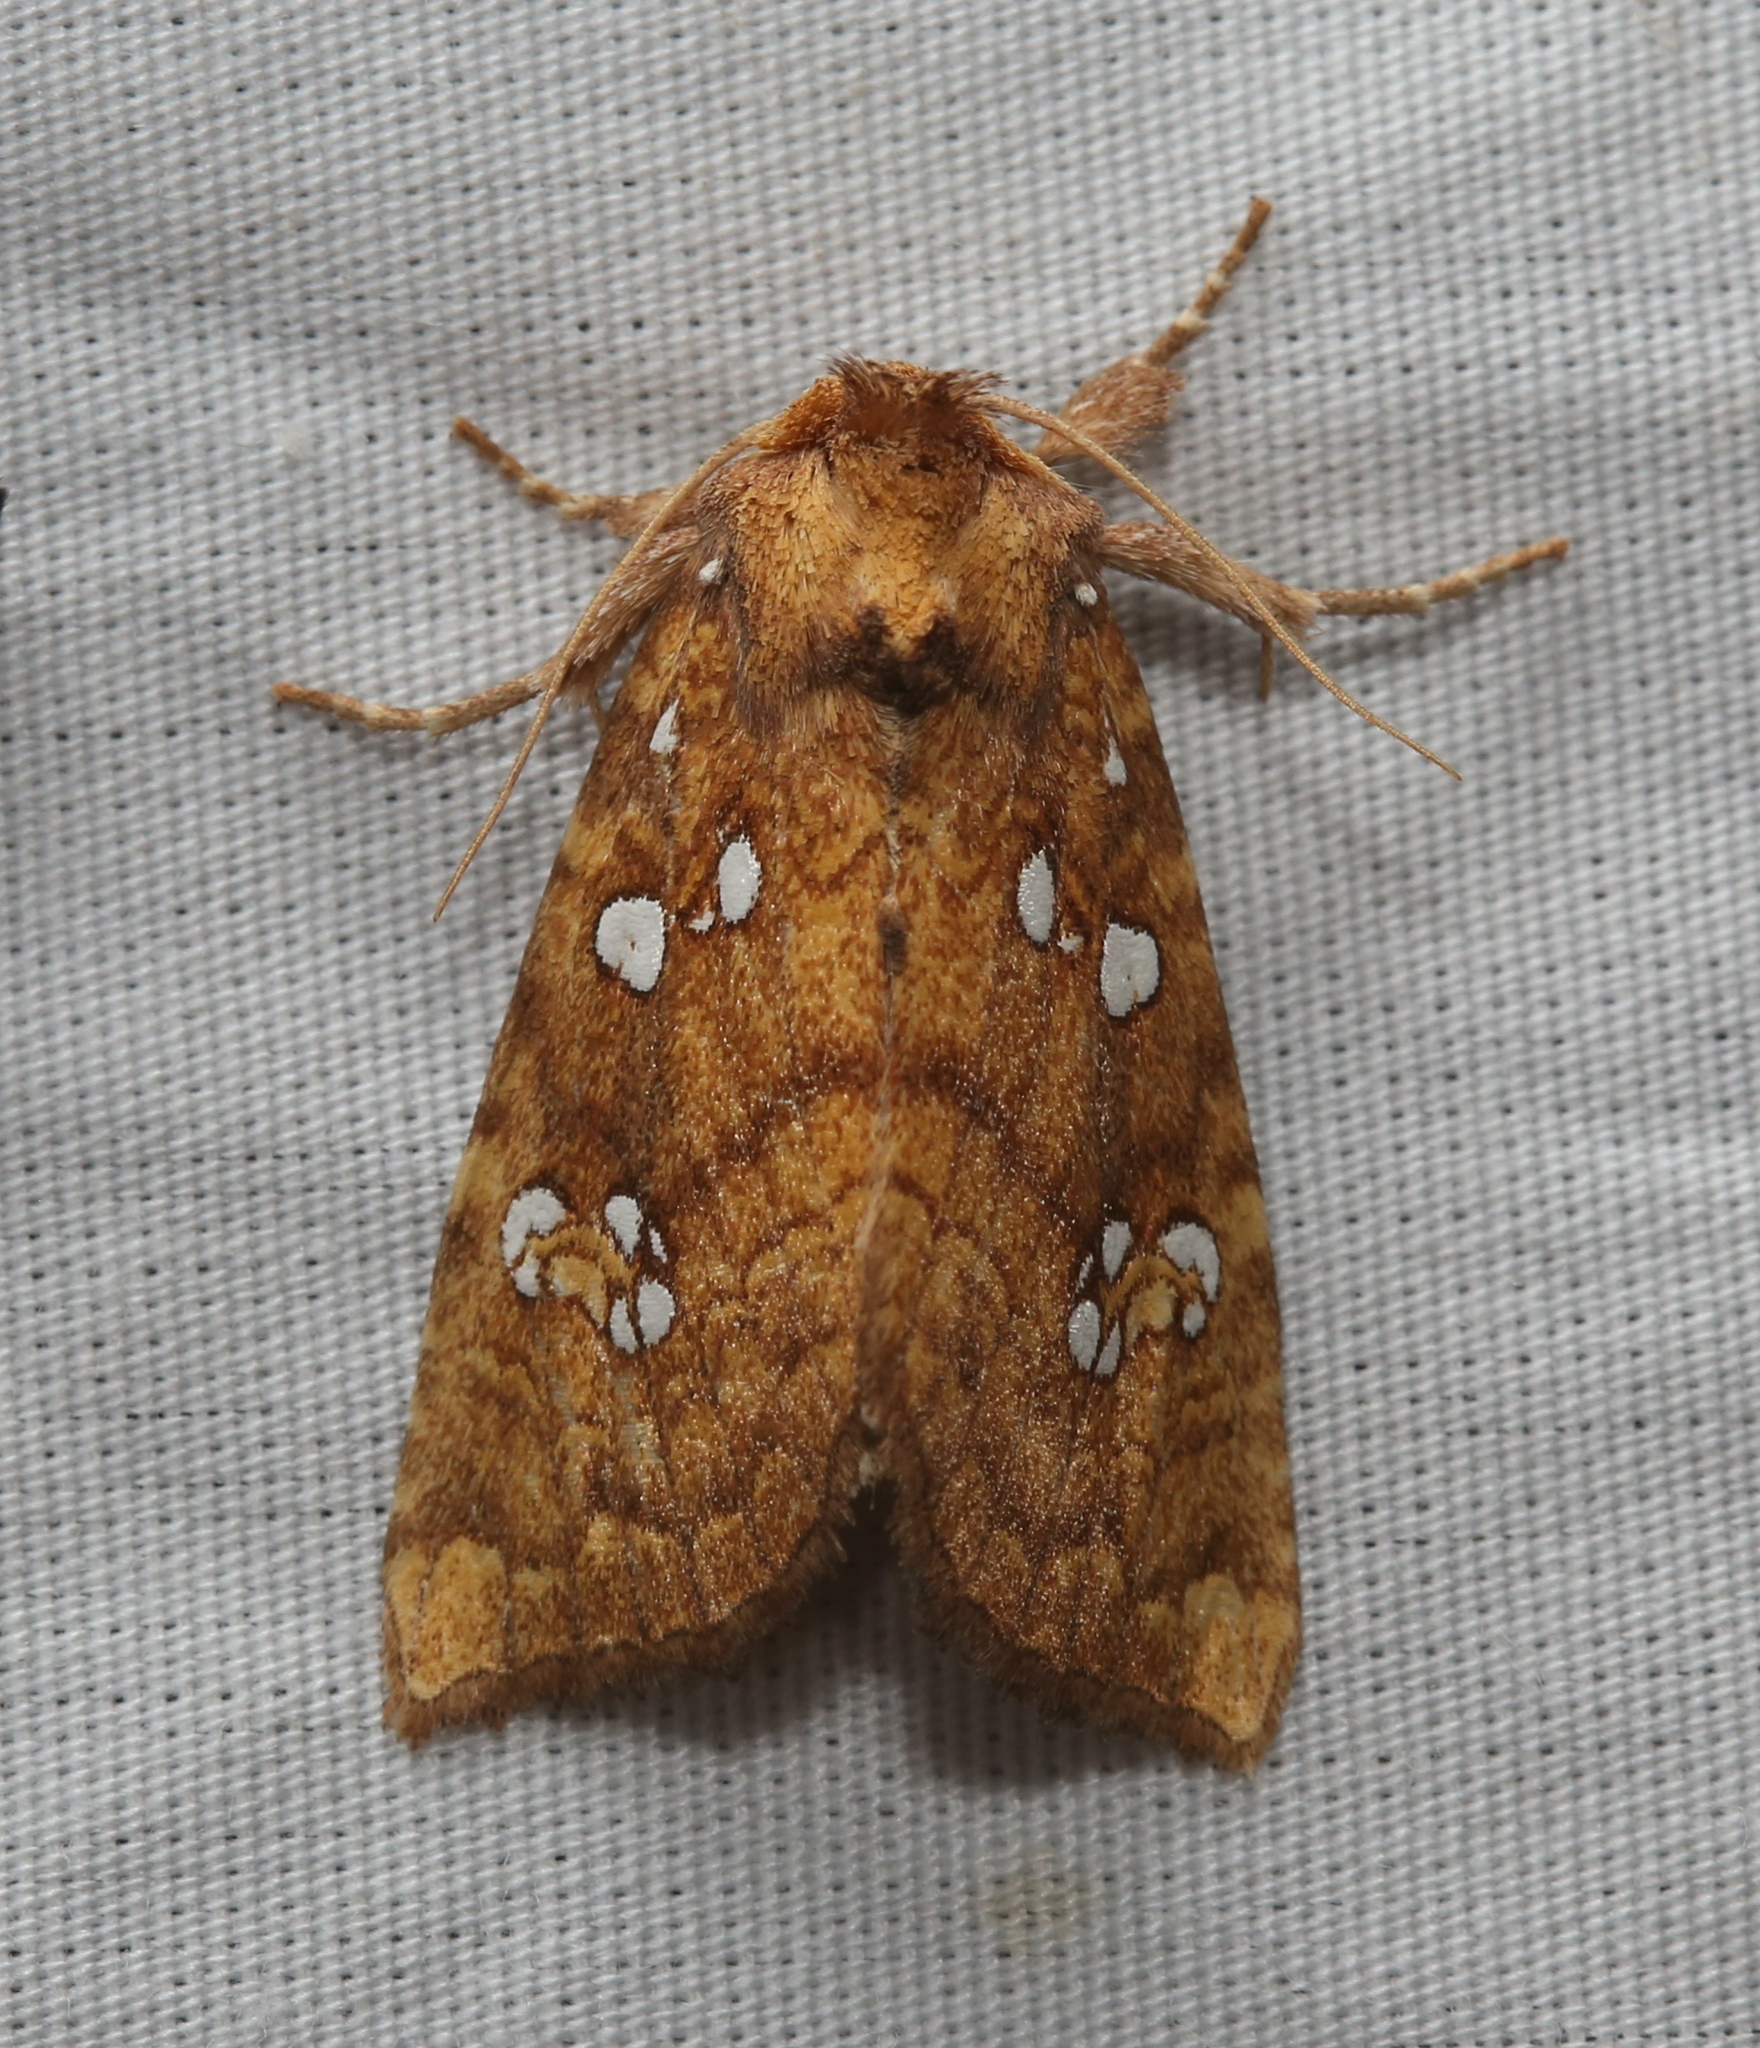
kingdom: Animalia
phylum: Arthropoda
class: Insecta
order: Lepidoptera
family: Noctuidae
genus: Papaipema
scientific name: Papaipema furcata
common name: Ash tip borer moth
